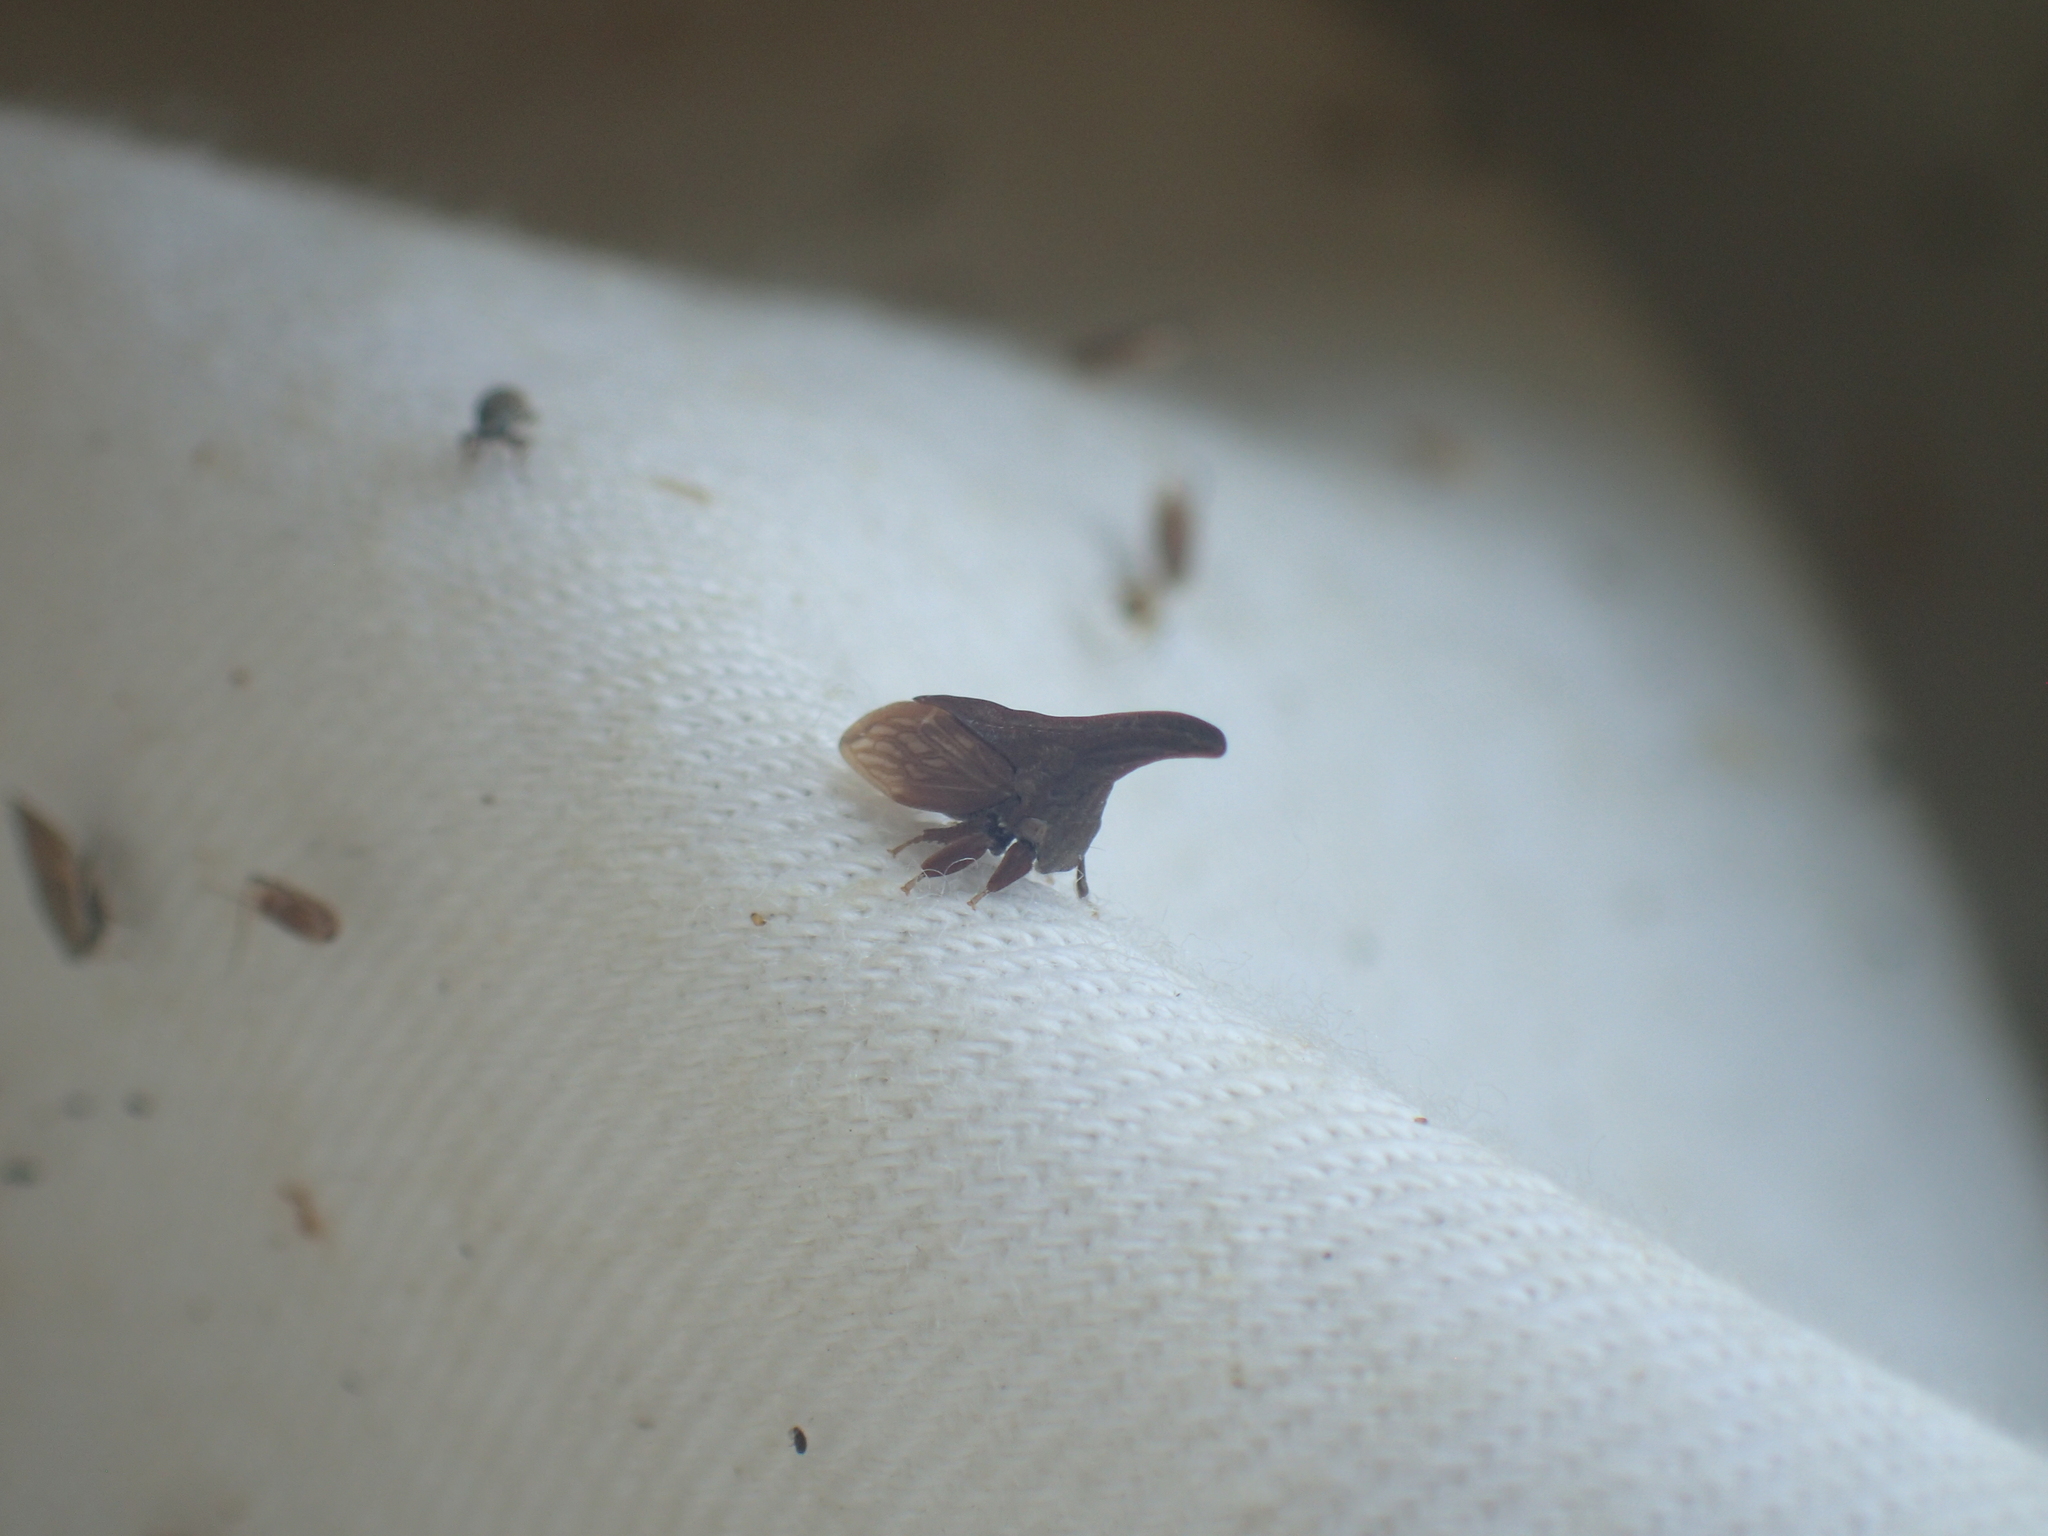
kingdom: Animalia
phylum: Arthropoda
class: Insecta
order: Hemiptera
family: Membracidae
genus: Enchenopa
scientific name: Enchenopa latipes
